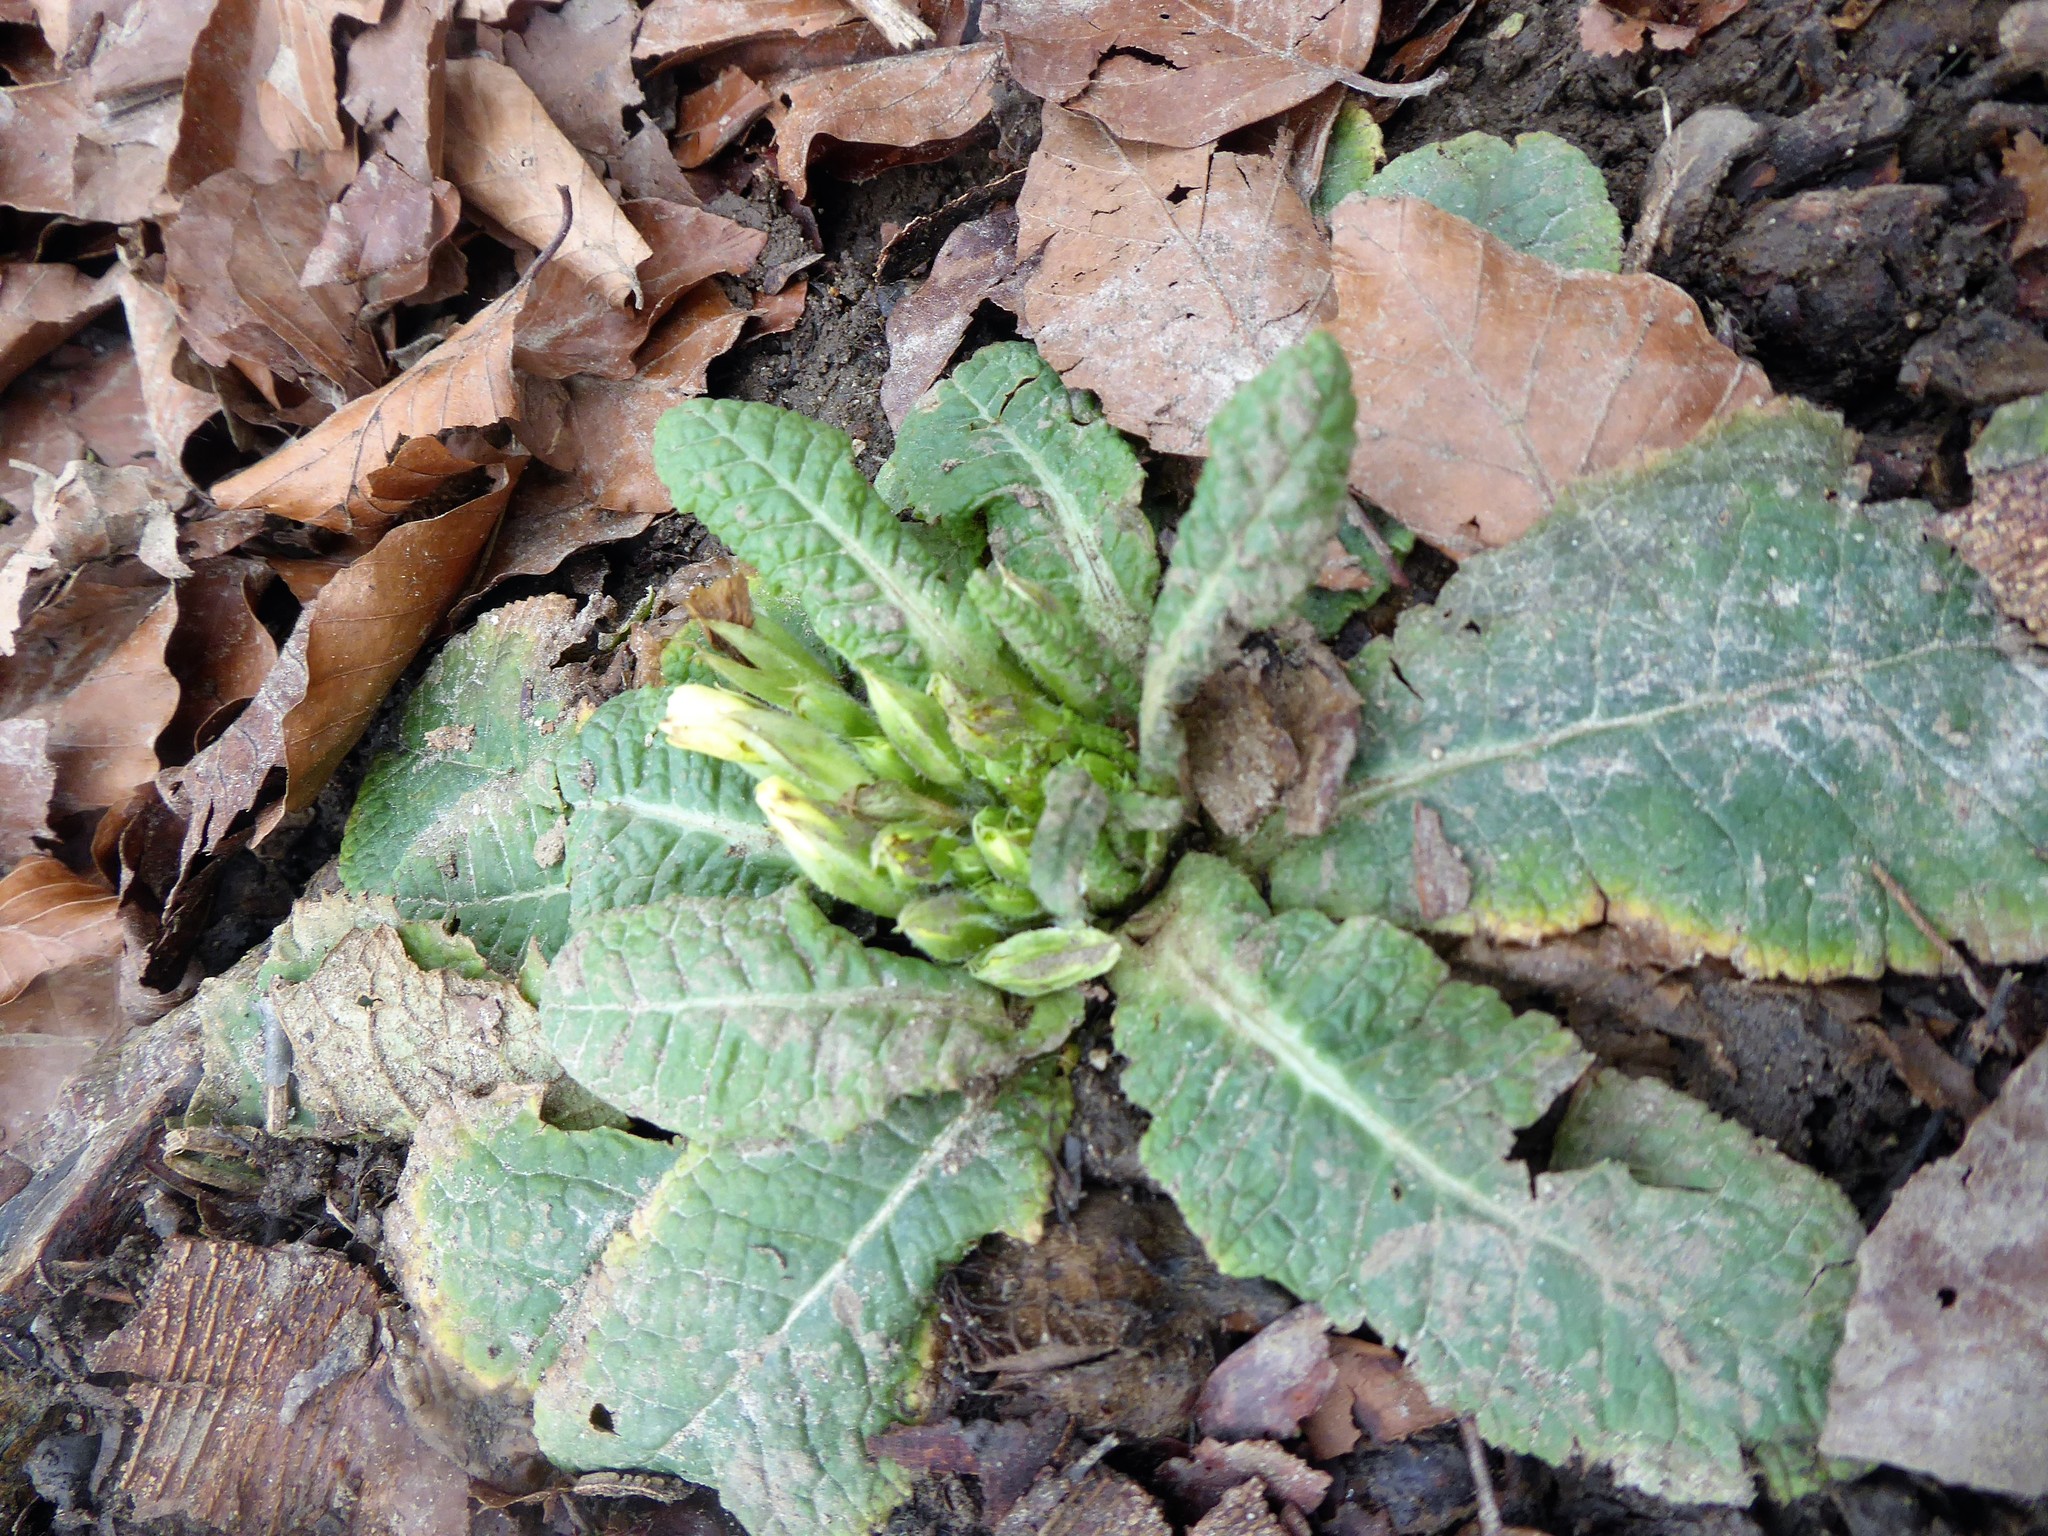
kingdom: Plantae
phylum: Tracheophyta
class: Magnoliopsida
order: Ericales
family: Primulaceae
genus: Primula
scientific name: Primula vulgaris
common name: Primrose
